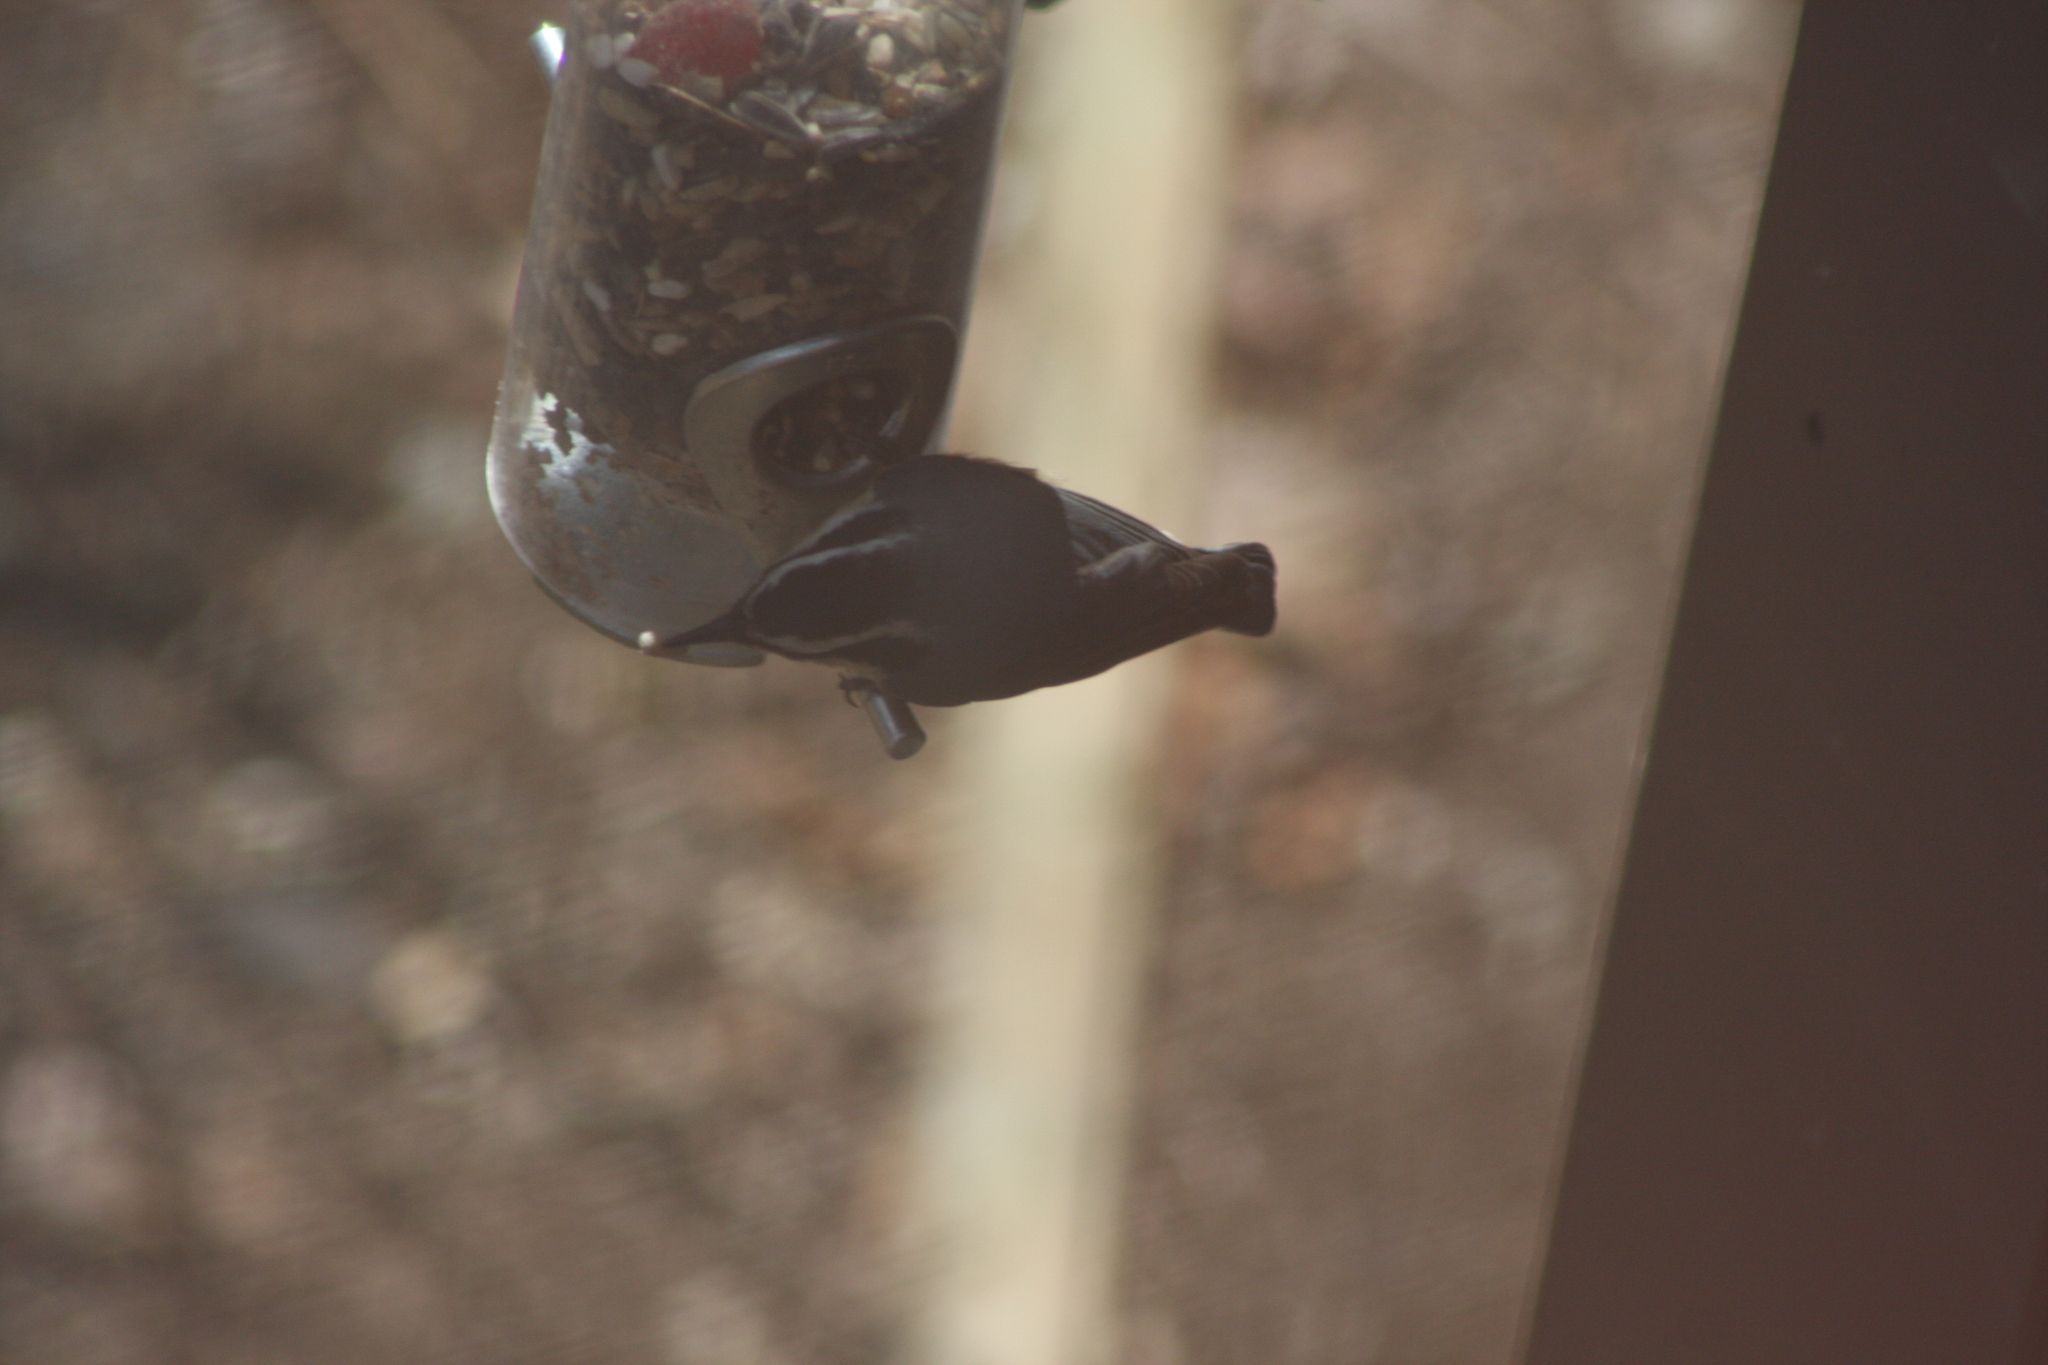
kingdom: Animalia
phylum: Chordata
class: Aves
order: Passeriformes
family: Sittidae
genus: Sitta
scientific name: Sitta canadensis
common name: Red-breasted nuthatch
